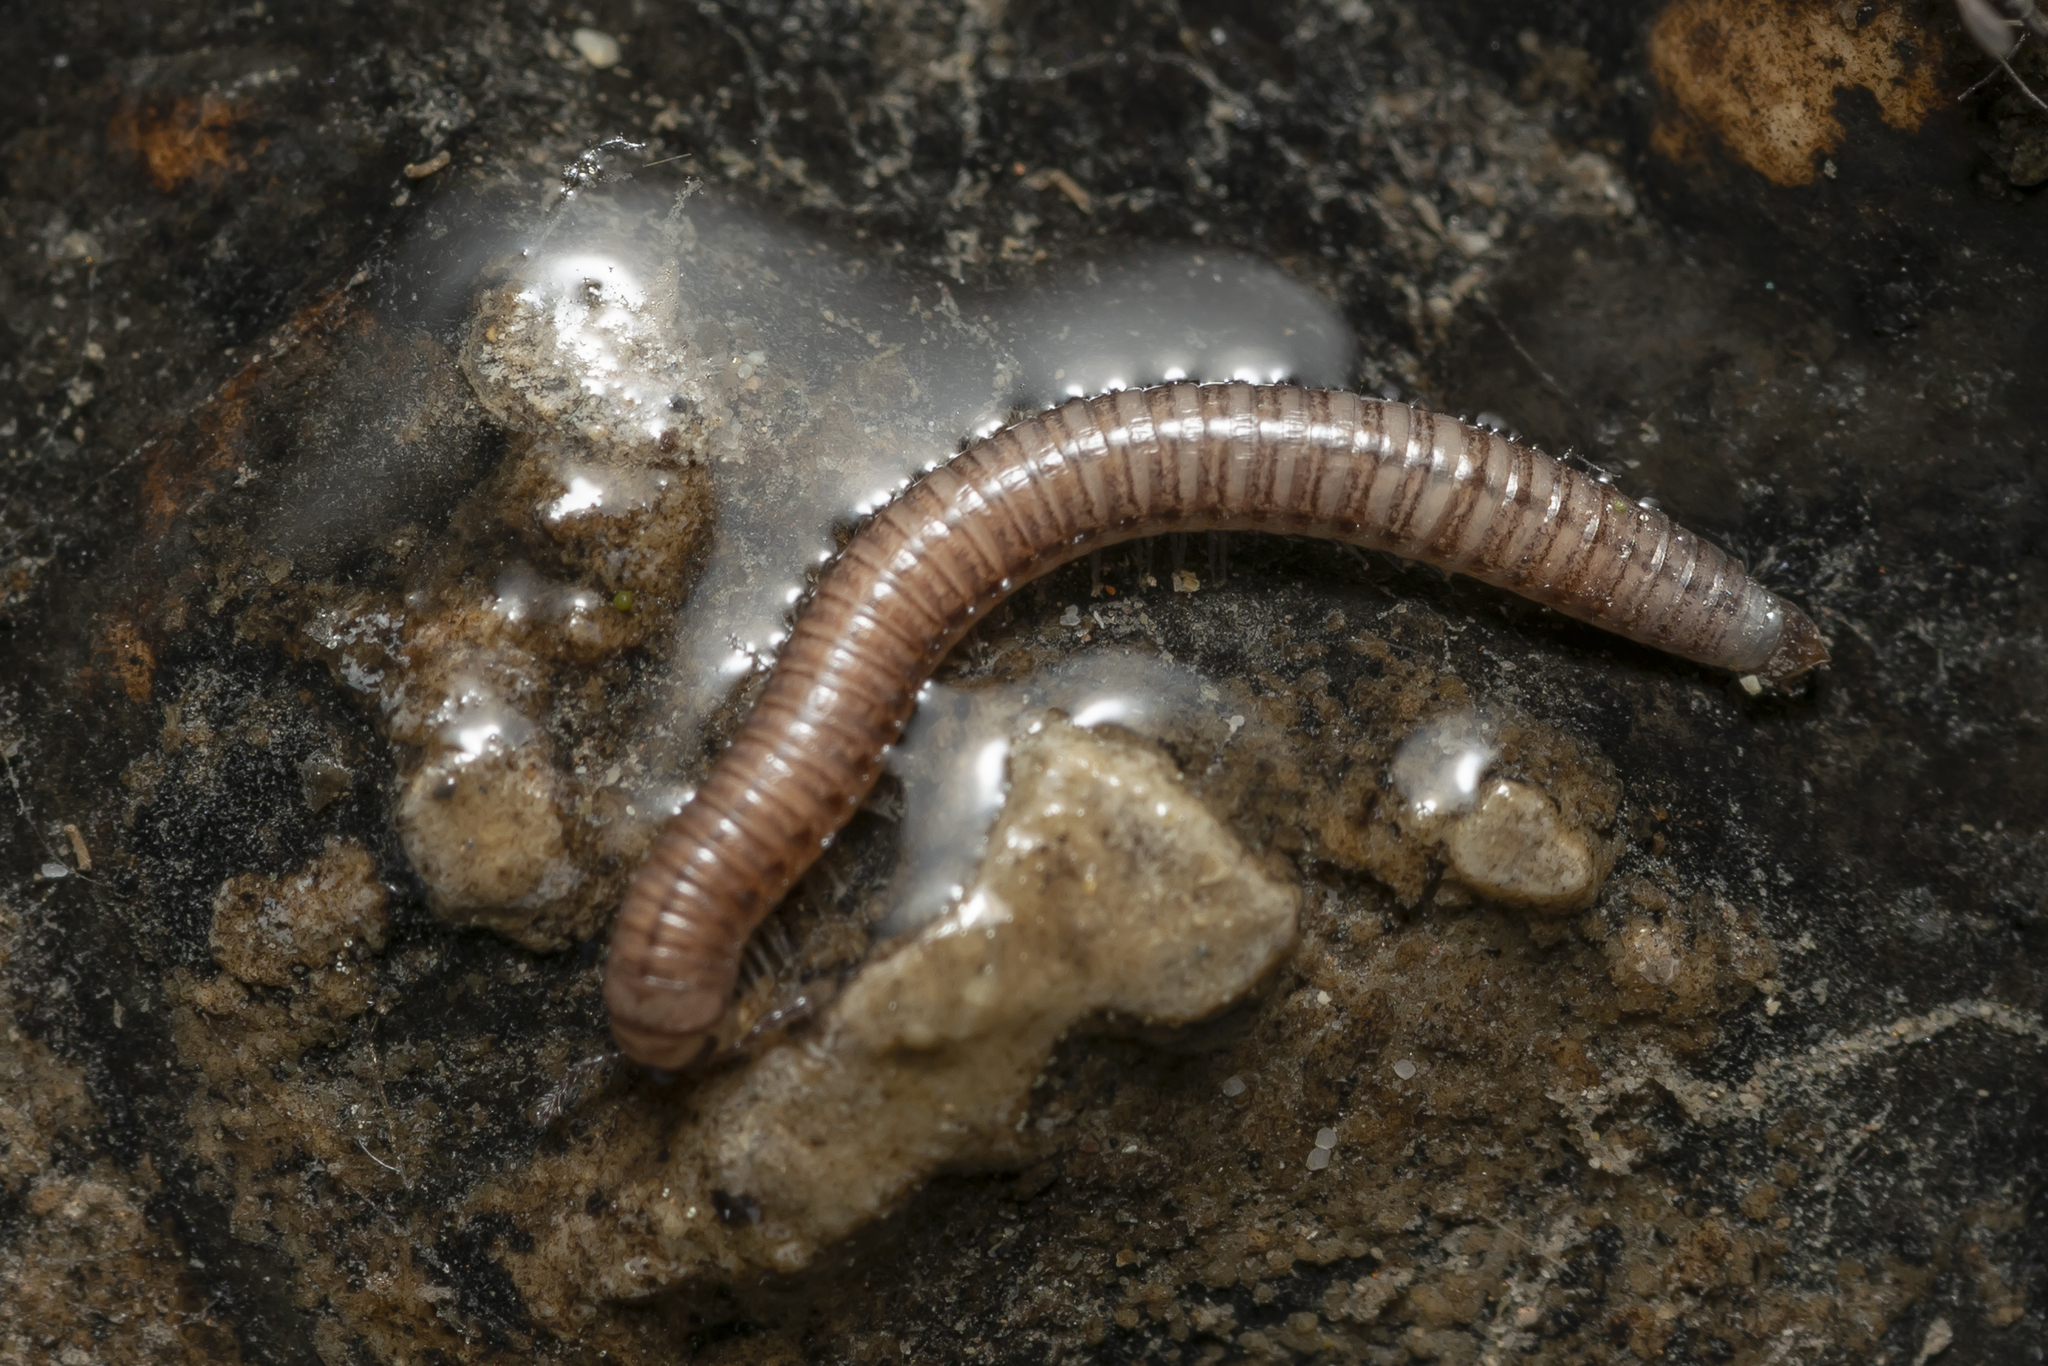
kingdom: Animalia
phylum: Arthropoda
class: Diplopoda
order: Julida
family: Julidae
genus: Italoiulus
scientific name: Italoiulus bicolor
